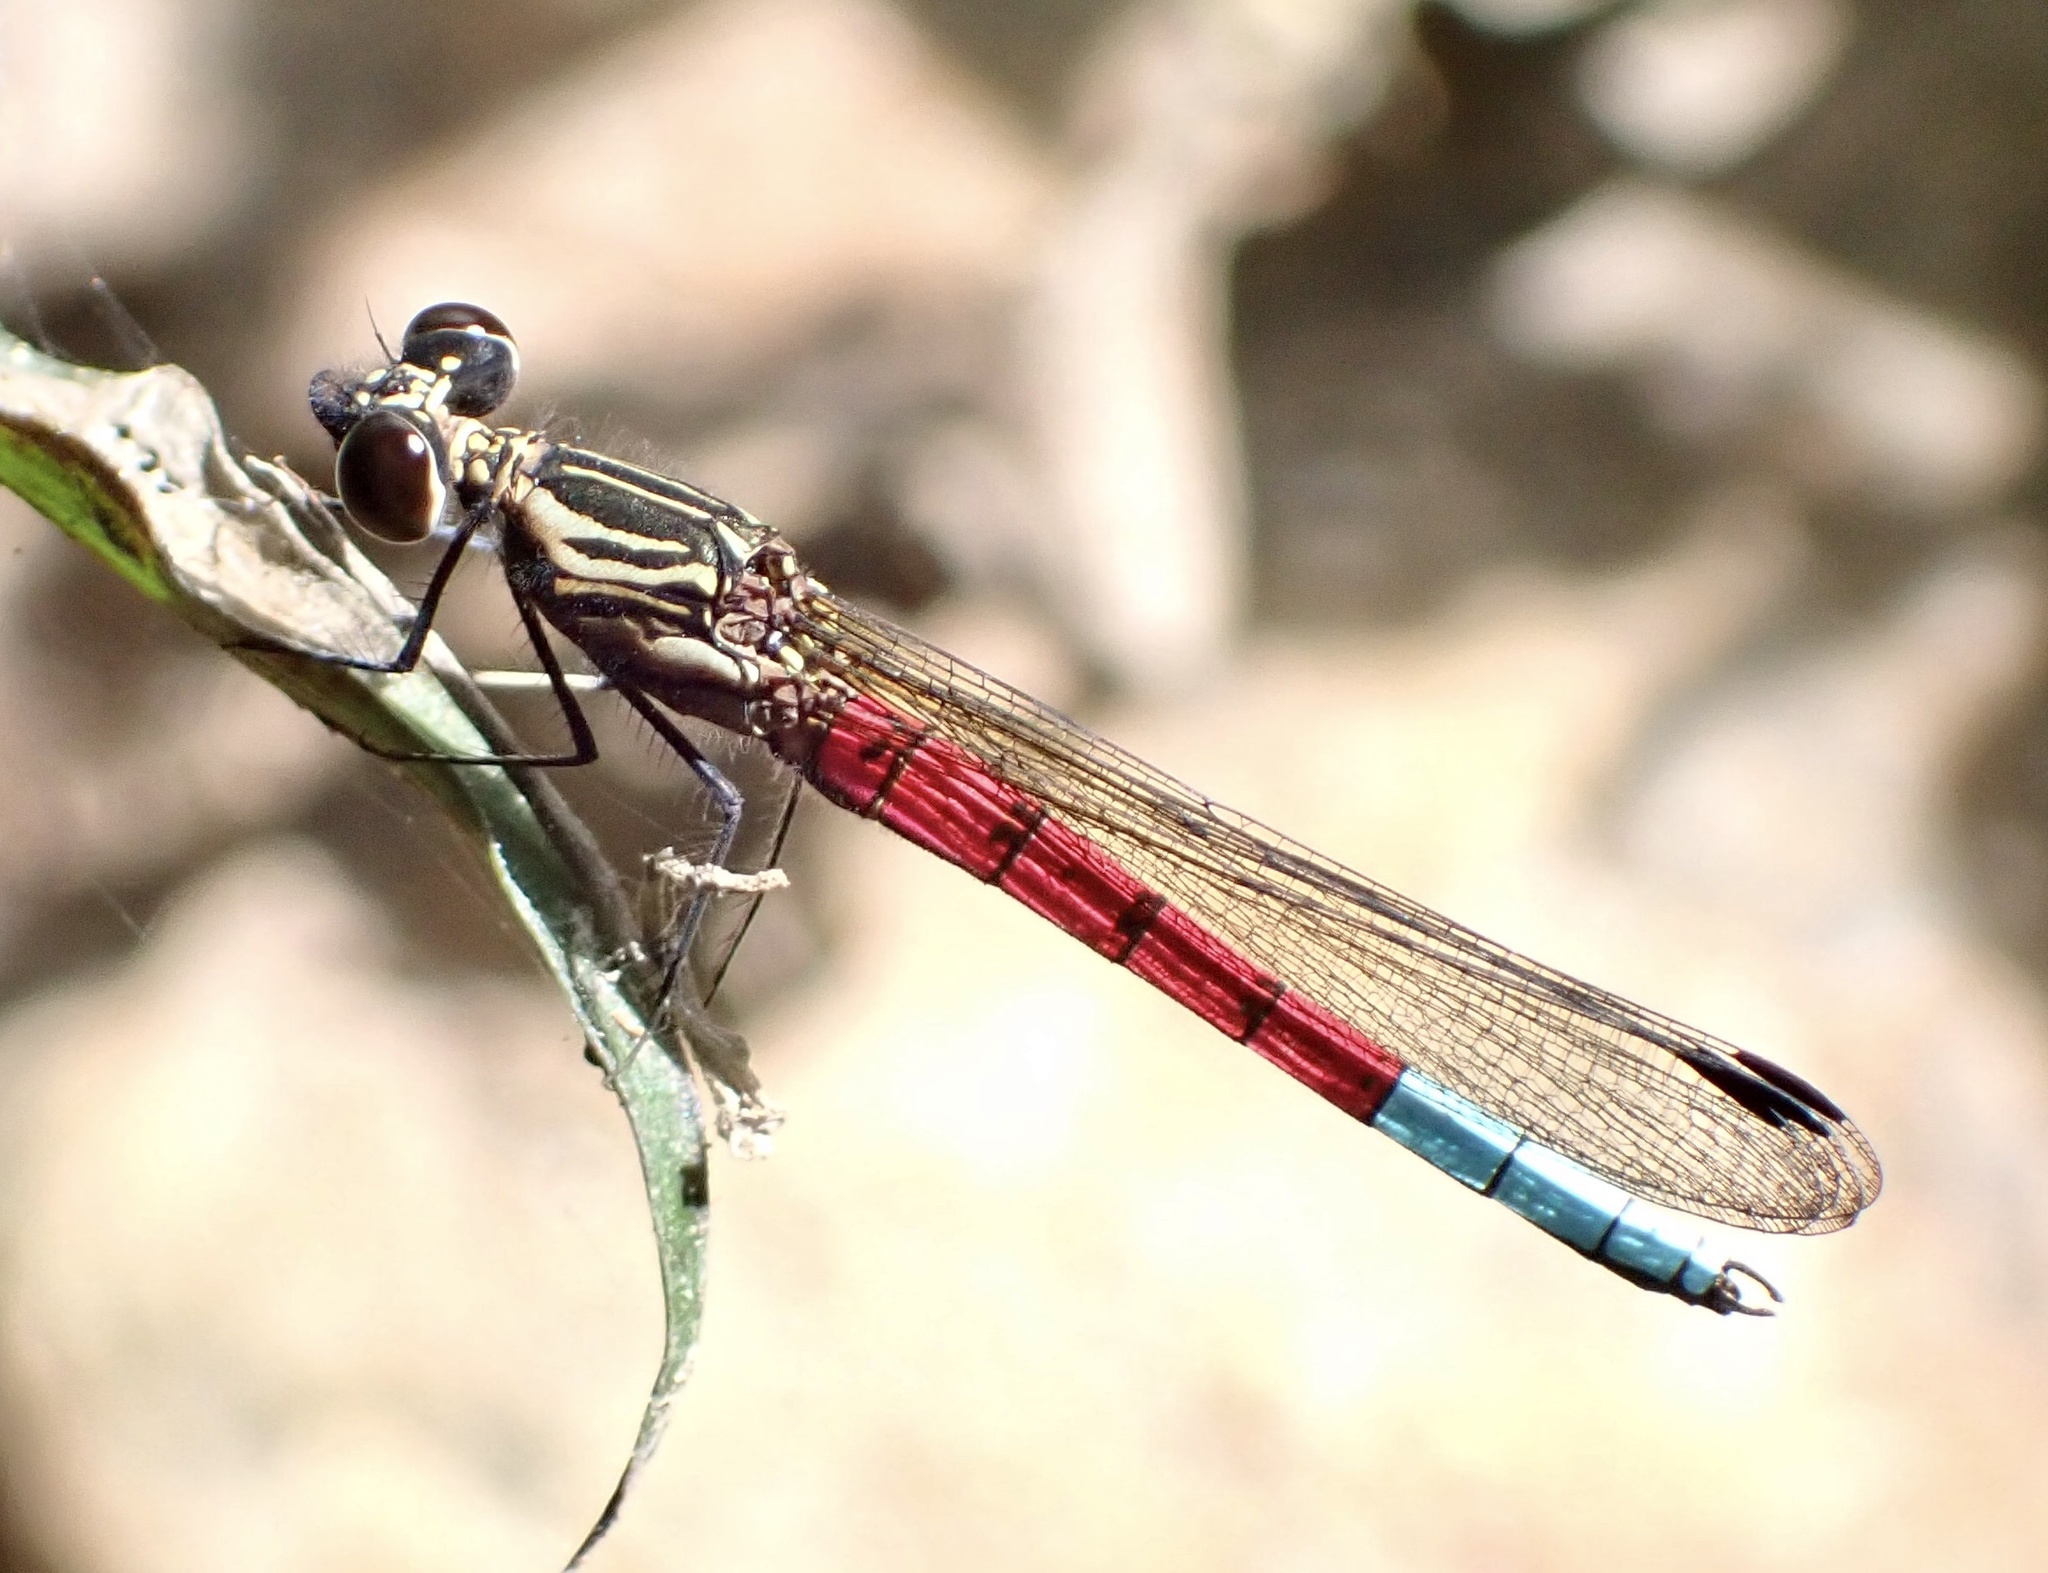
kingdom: Animalia
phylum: Arthropoda
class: Insecta
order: Odonata
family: Chlorocyphidae
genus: Chlorocypha
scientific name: Chlorocypha curta
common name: Blue-tipped jewel
